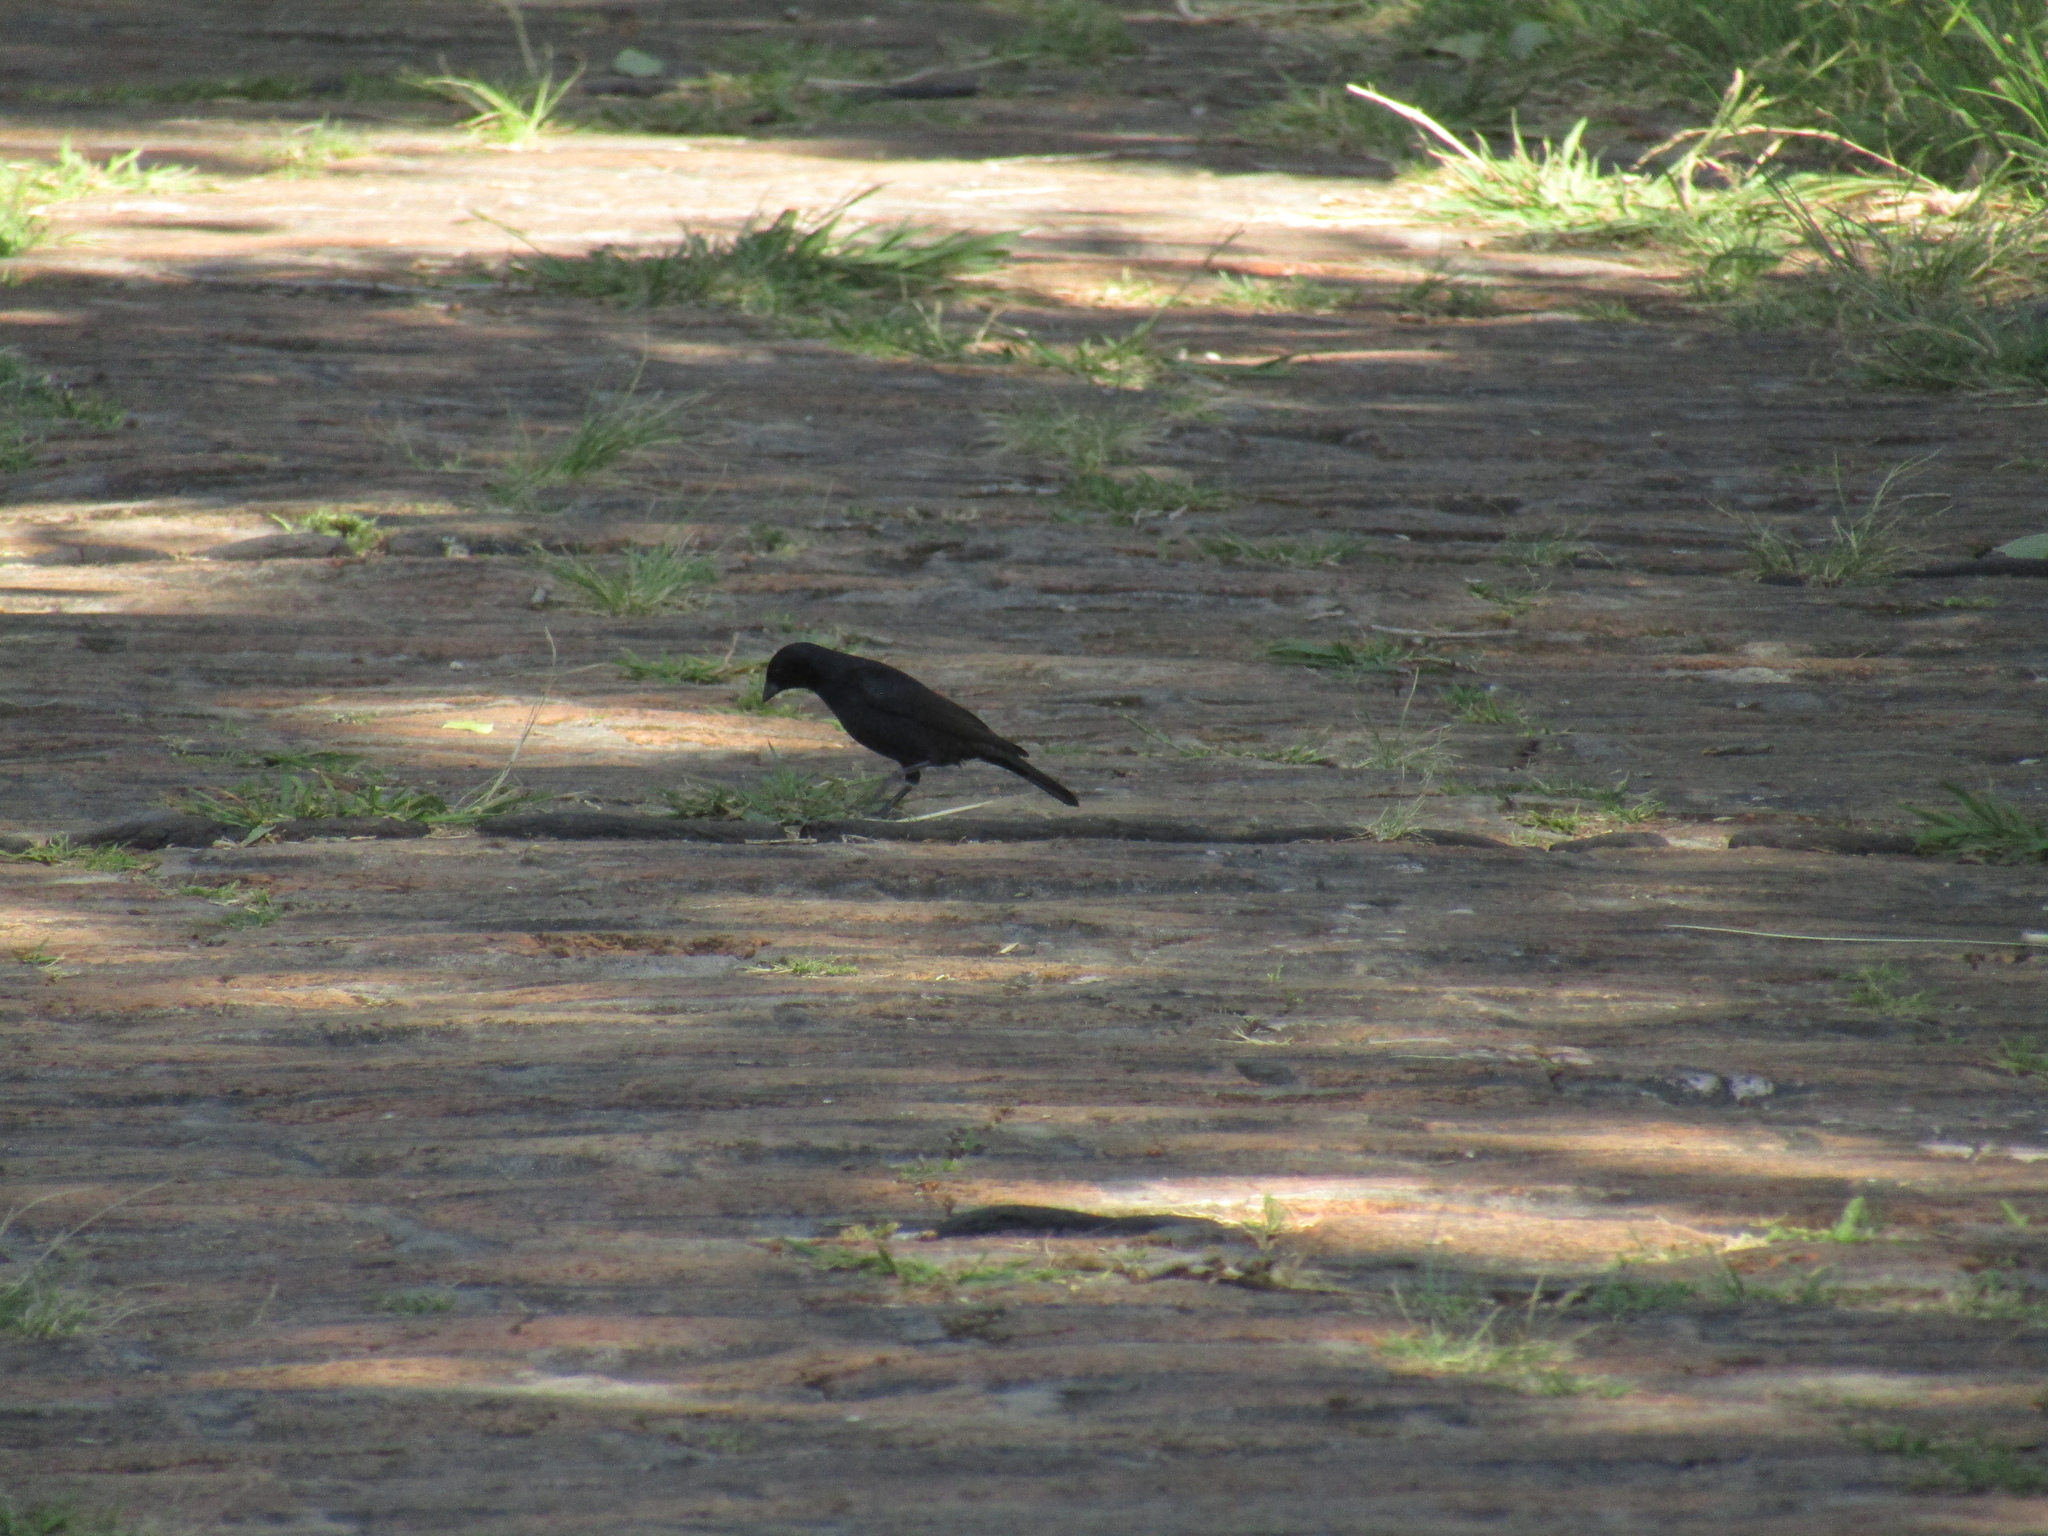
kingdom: Animalia
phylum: Chordata
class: Aves
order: Passeriformes
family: Icteridae
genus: Molothrus
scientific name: Molothrus bonariensis
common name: Shiny cowbird
